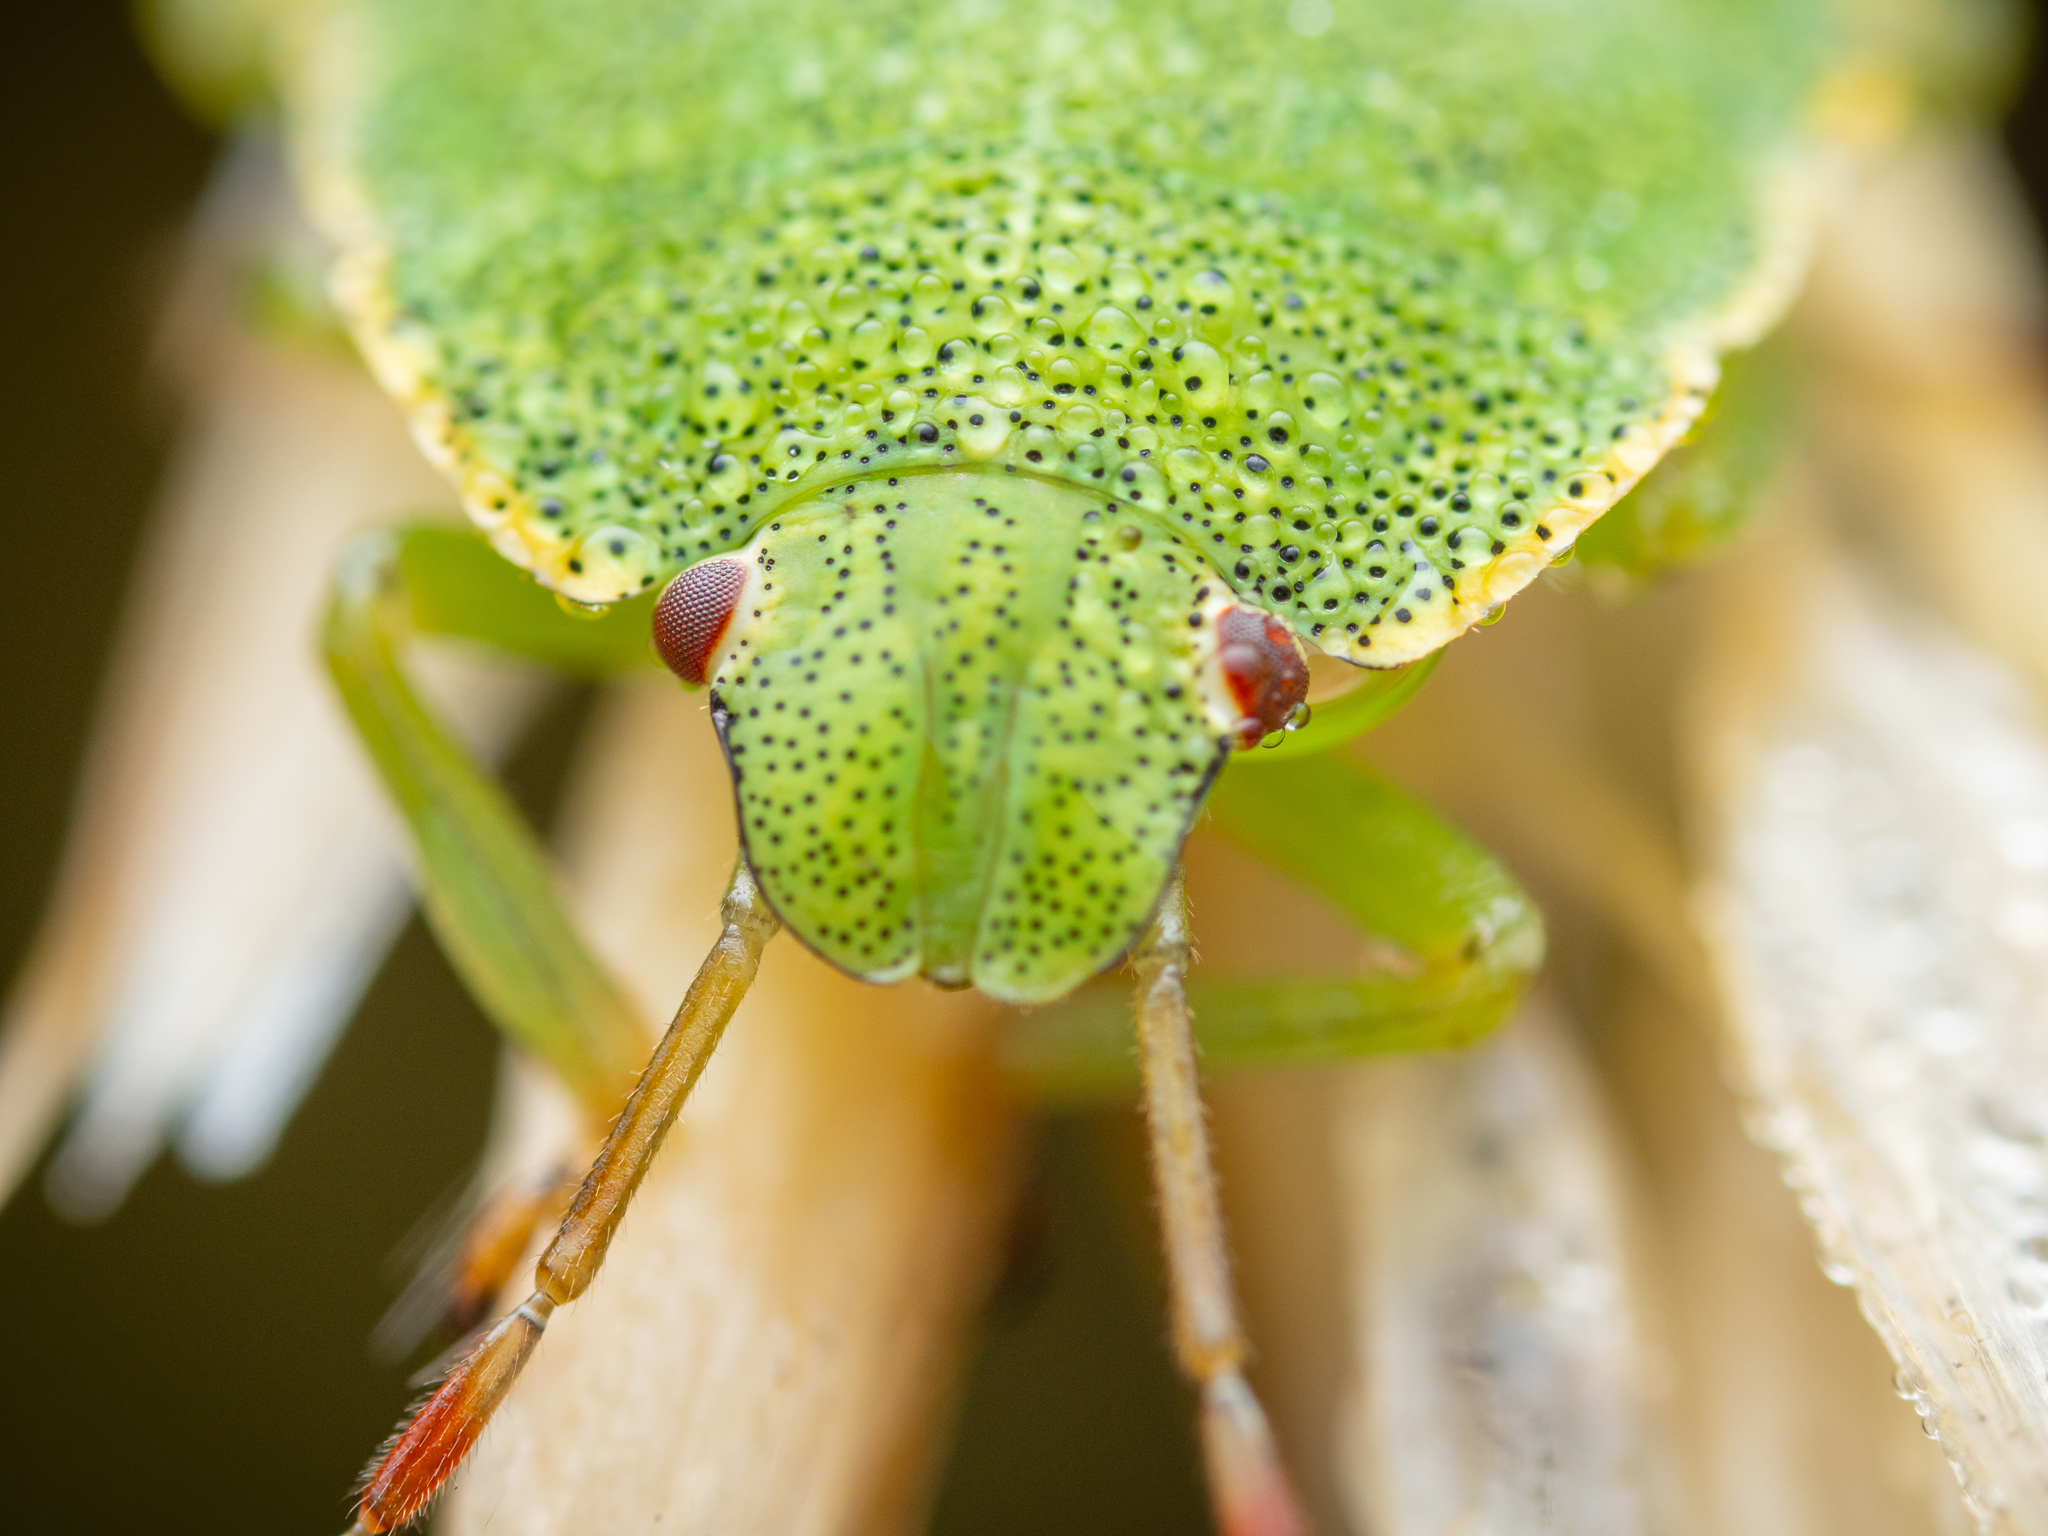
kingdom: Animalia
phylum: Arthropoda
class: Insecta
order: Hemiptera
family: Pentatomidae
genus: Palomena
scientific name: Palomena prasina
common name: Green shieldbug
